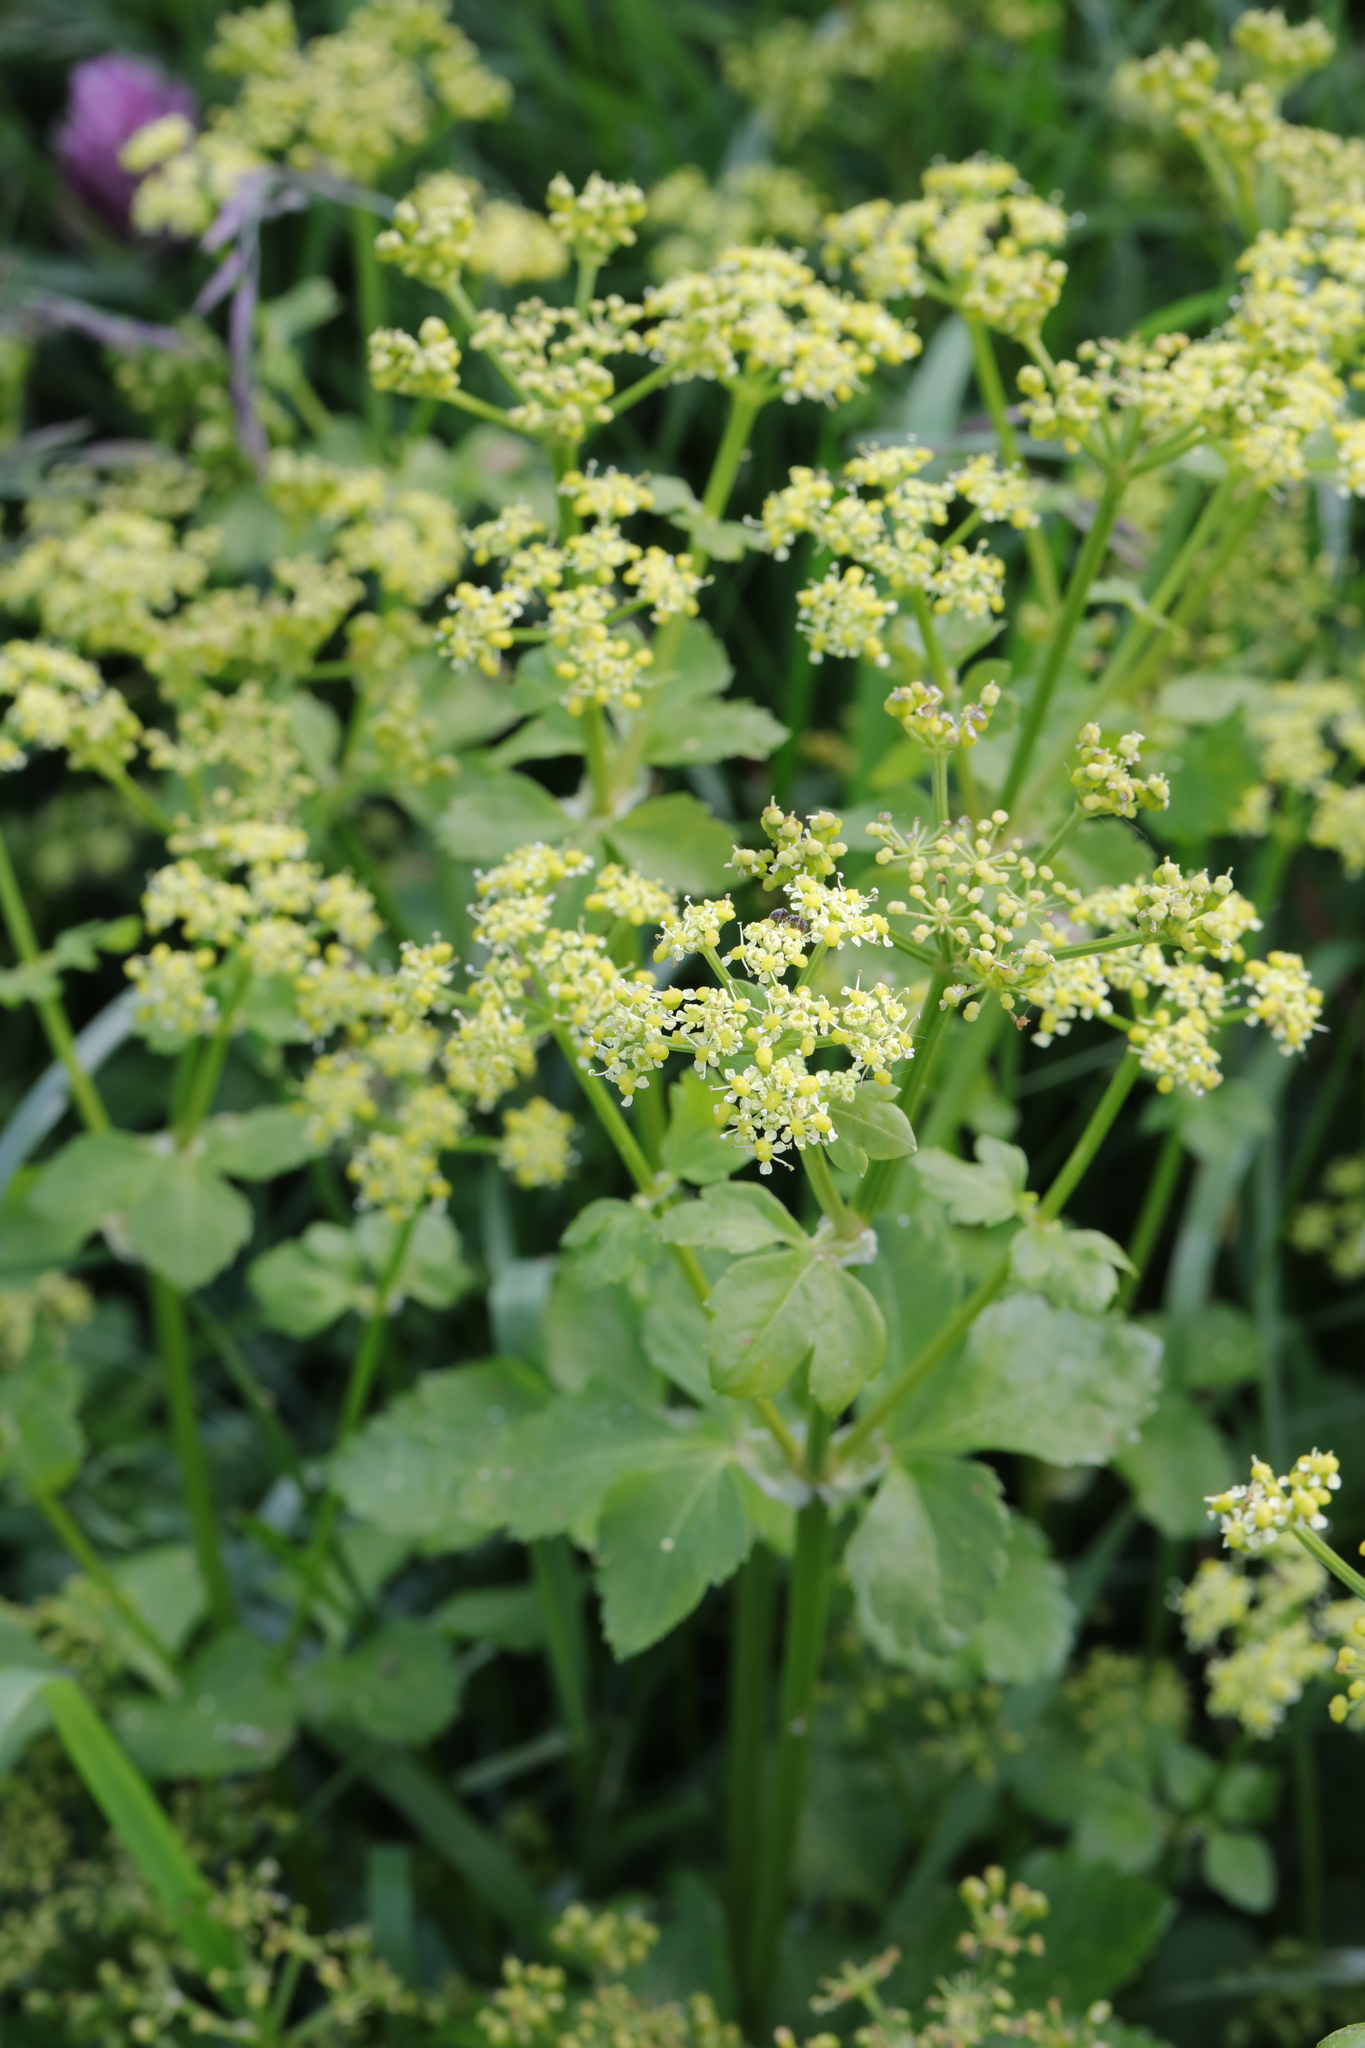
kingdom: Plantae
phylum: Tracheophyta
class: Magnoliopsida
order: Apiales
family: Apiaceae
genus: Smyrnium
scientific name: Smyrnium olusatrum
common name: Alexanders
